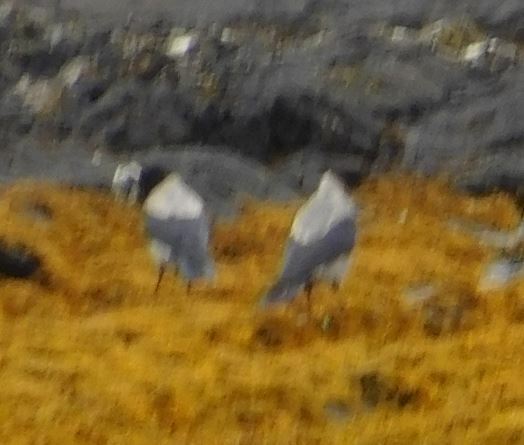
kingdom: Animalia
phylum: Chordata
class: Aves
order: Passeriformes
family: Corvidae
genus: Corvus
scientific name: Corvus cornix
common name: Hooded crow
